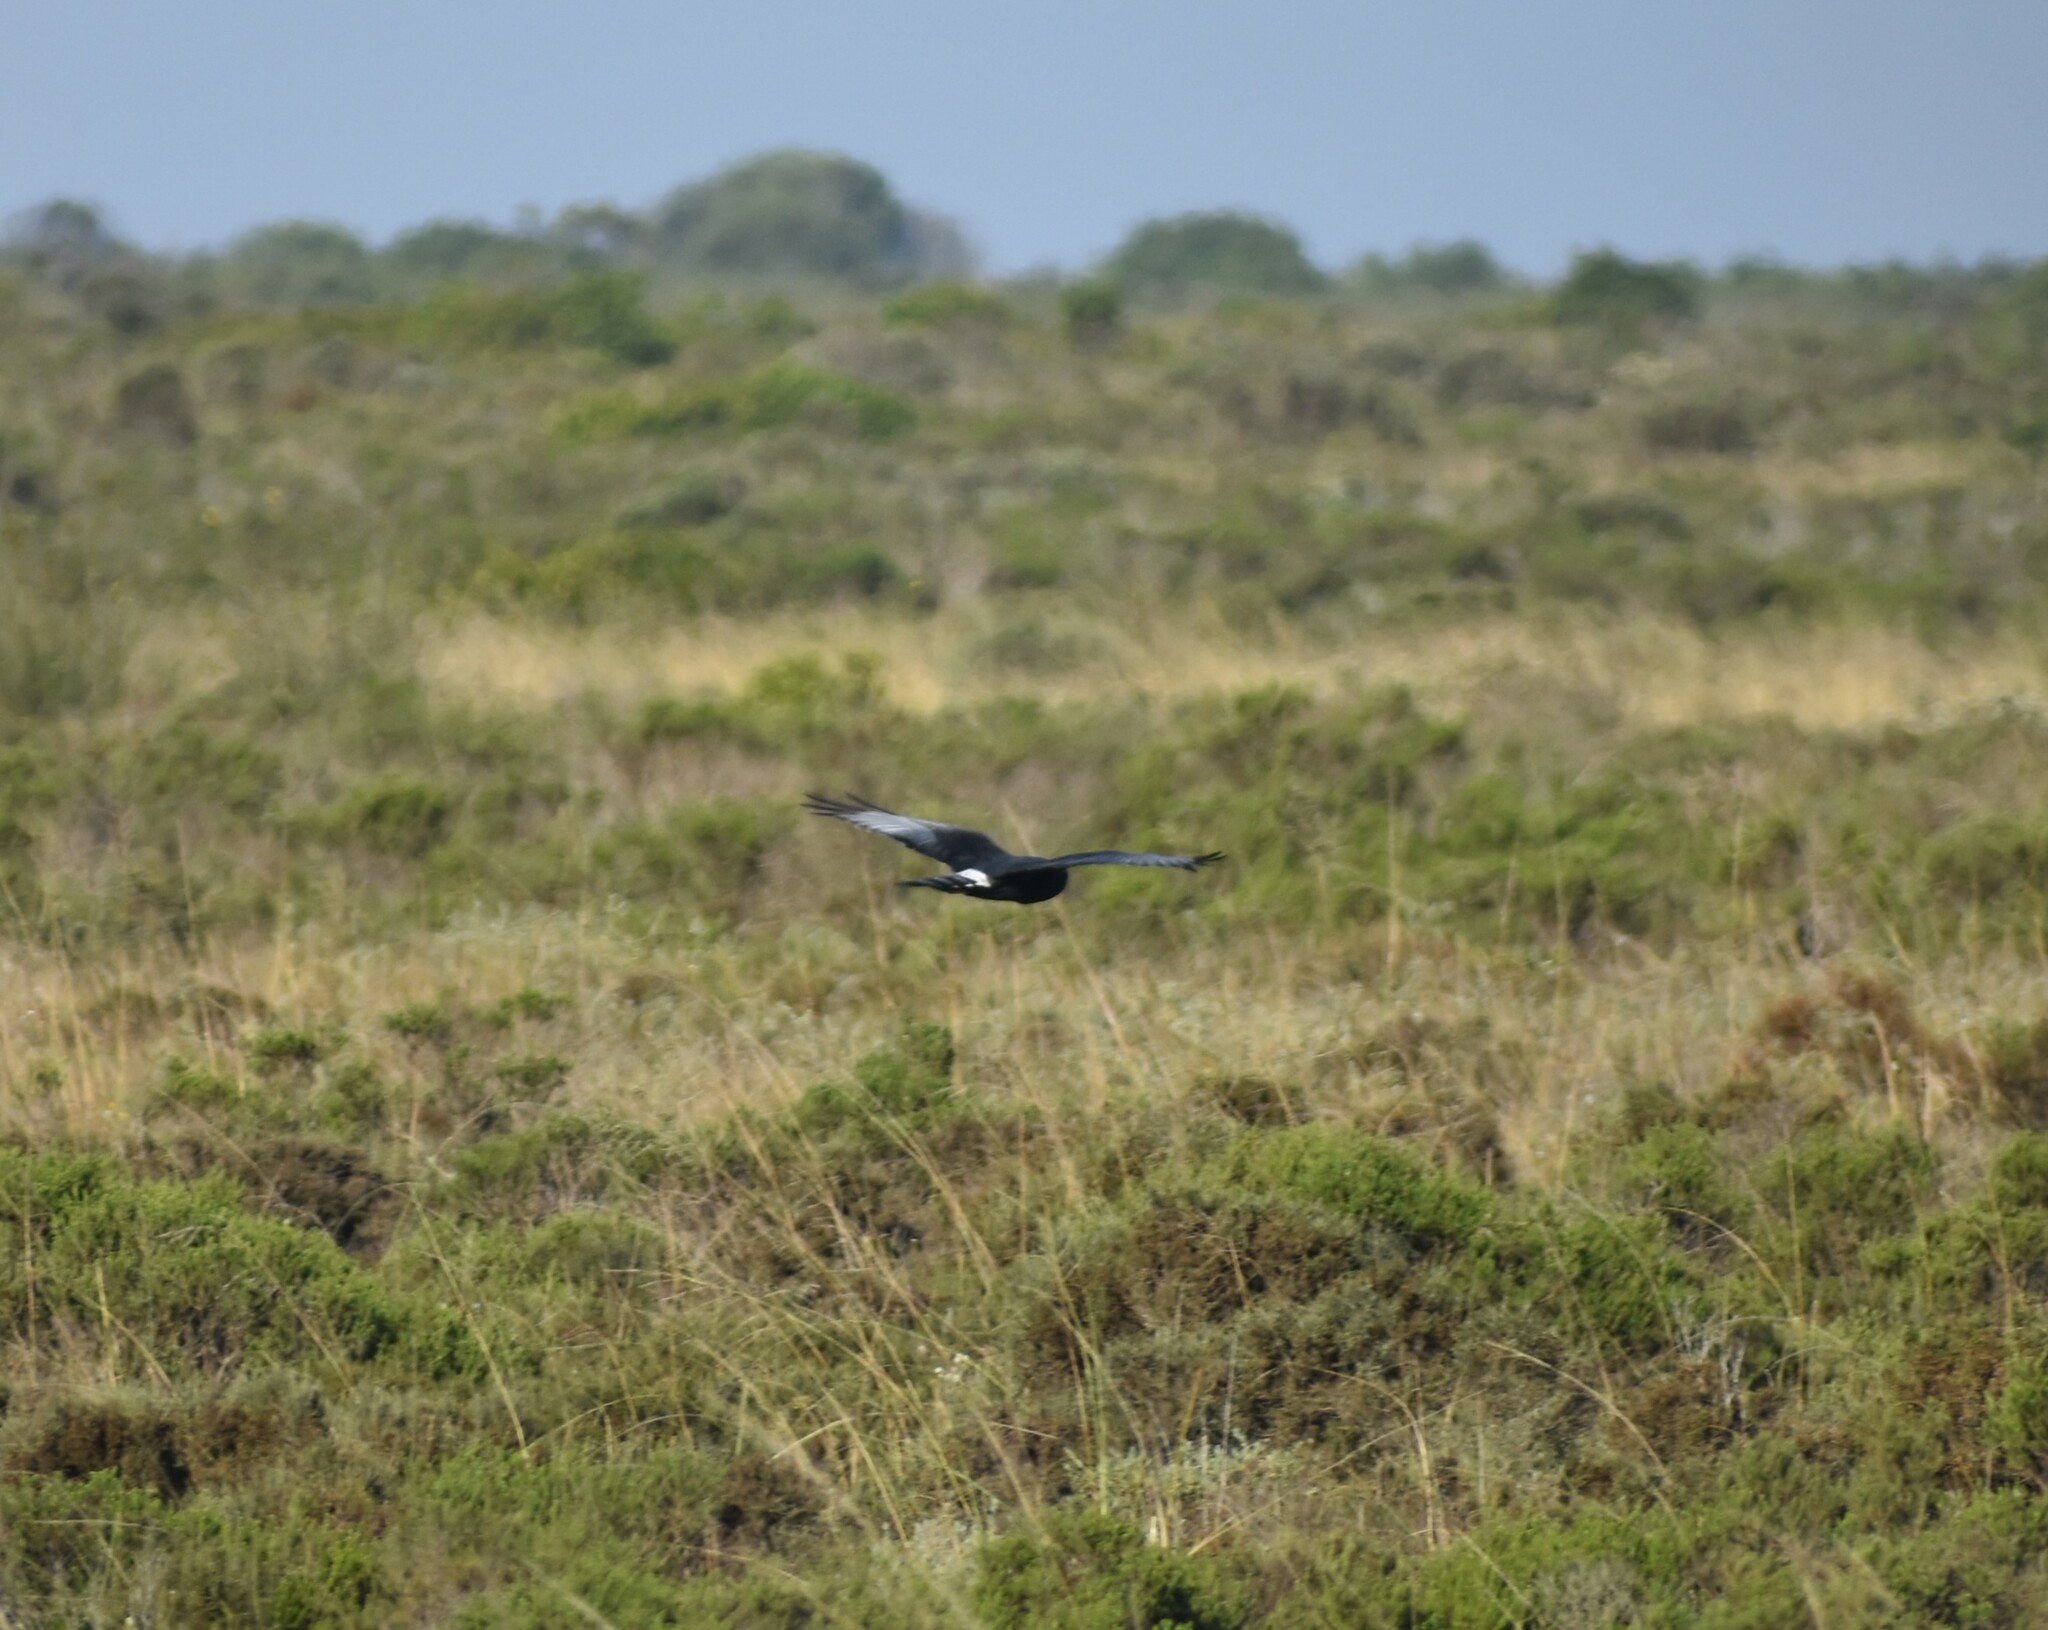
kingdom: Animalia
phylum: Chordata
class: Aves
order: Accipitriformes
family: Accipitridae
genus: Circus
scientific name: Circus maurus
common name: Black harrier
